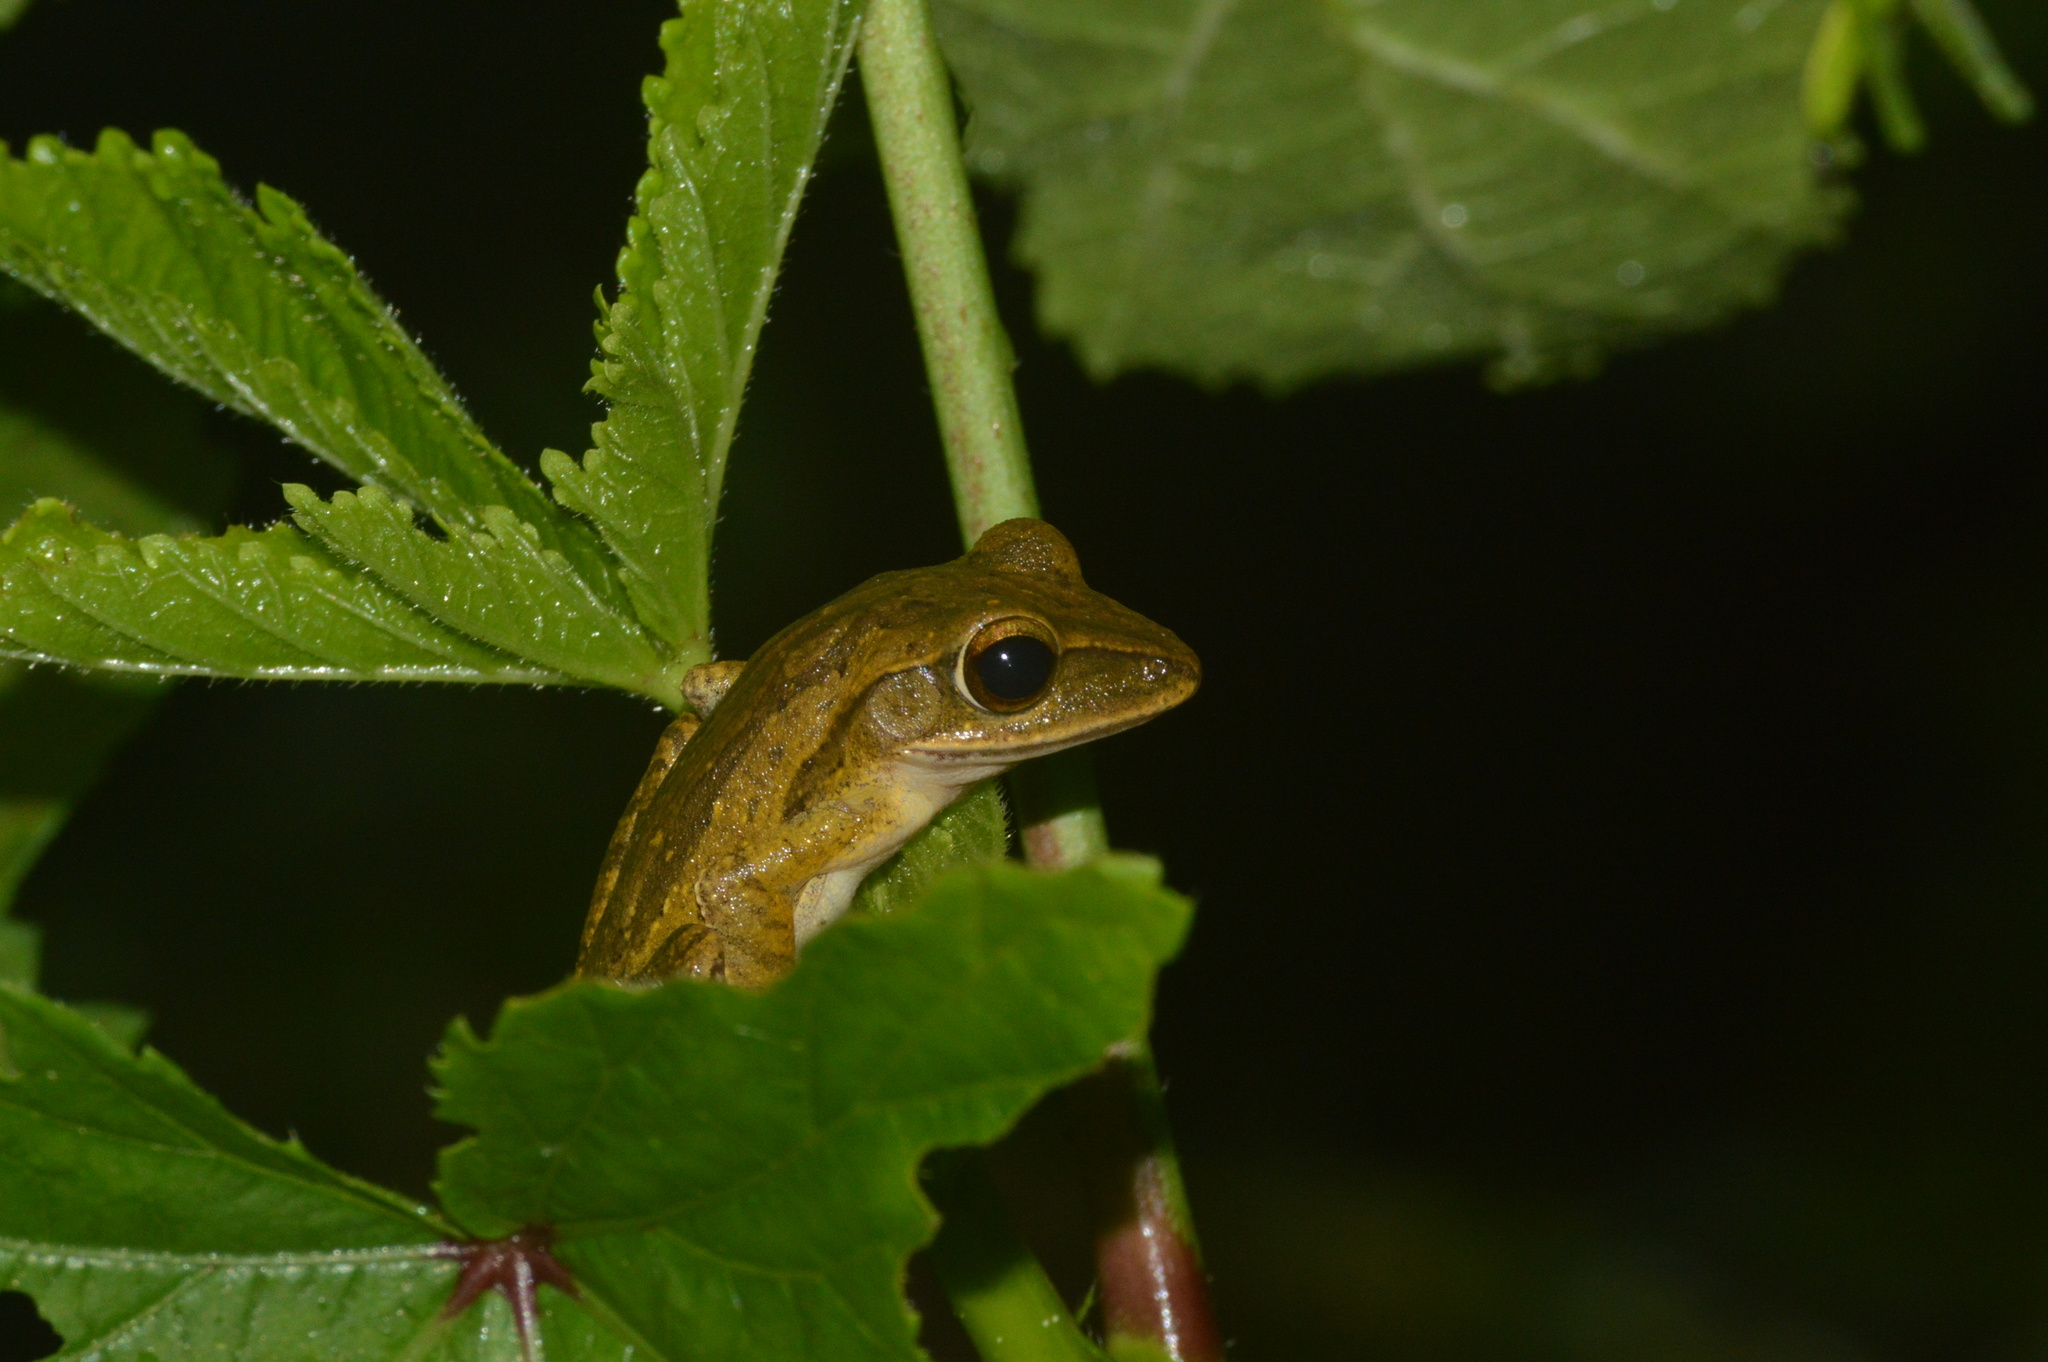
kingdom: Animalia
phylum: Chordata
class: Amphibia
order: Anura
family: Rhacophoridae
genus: Polypedates
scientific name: Polypedates leucomystax
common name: Common tree frog/four-lined tree frog
